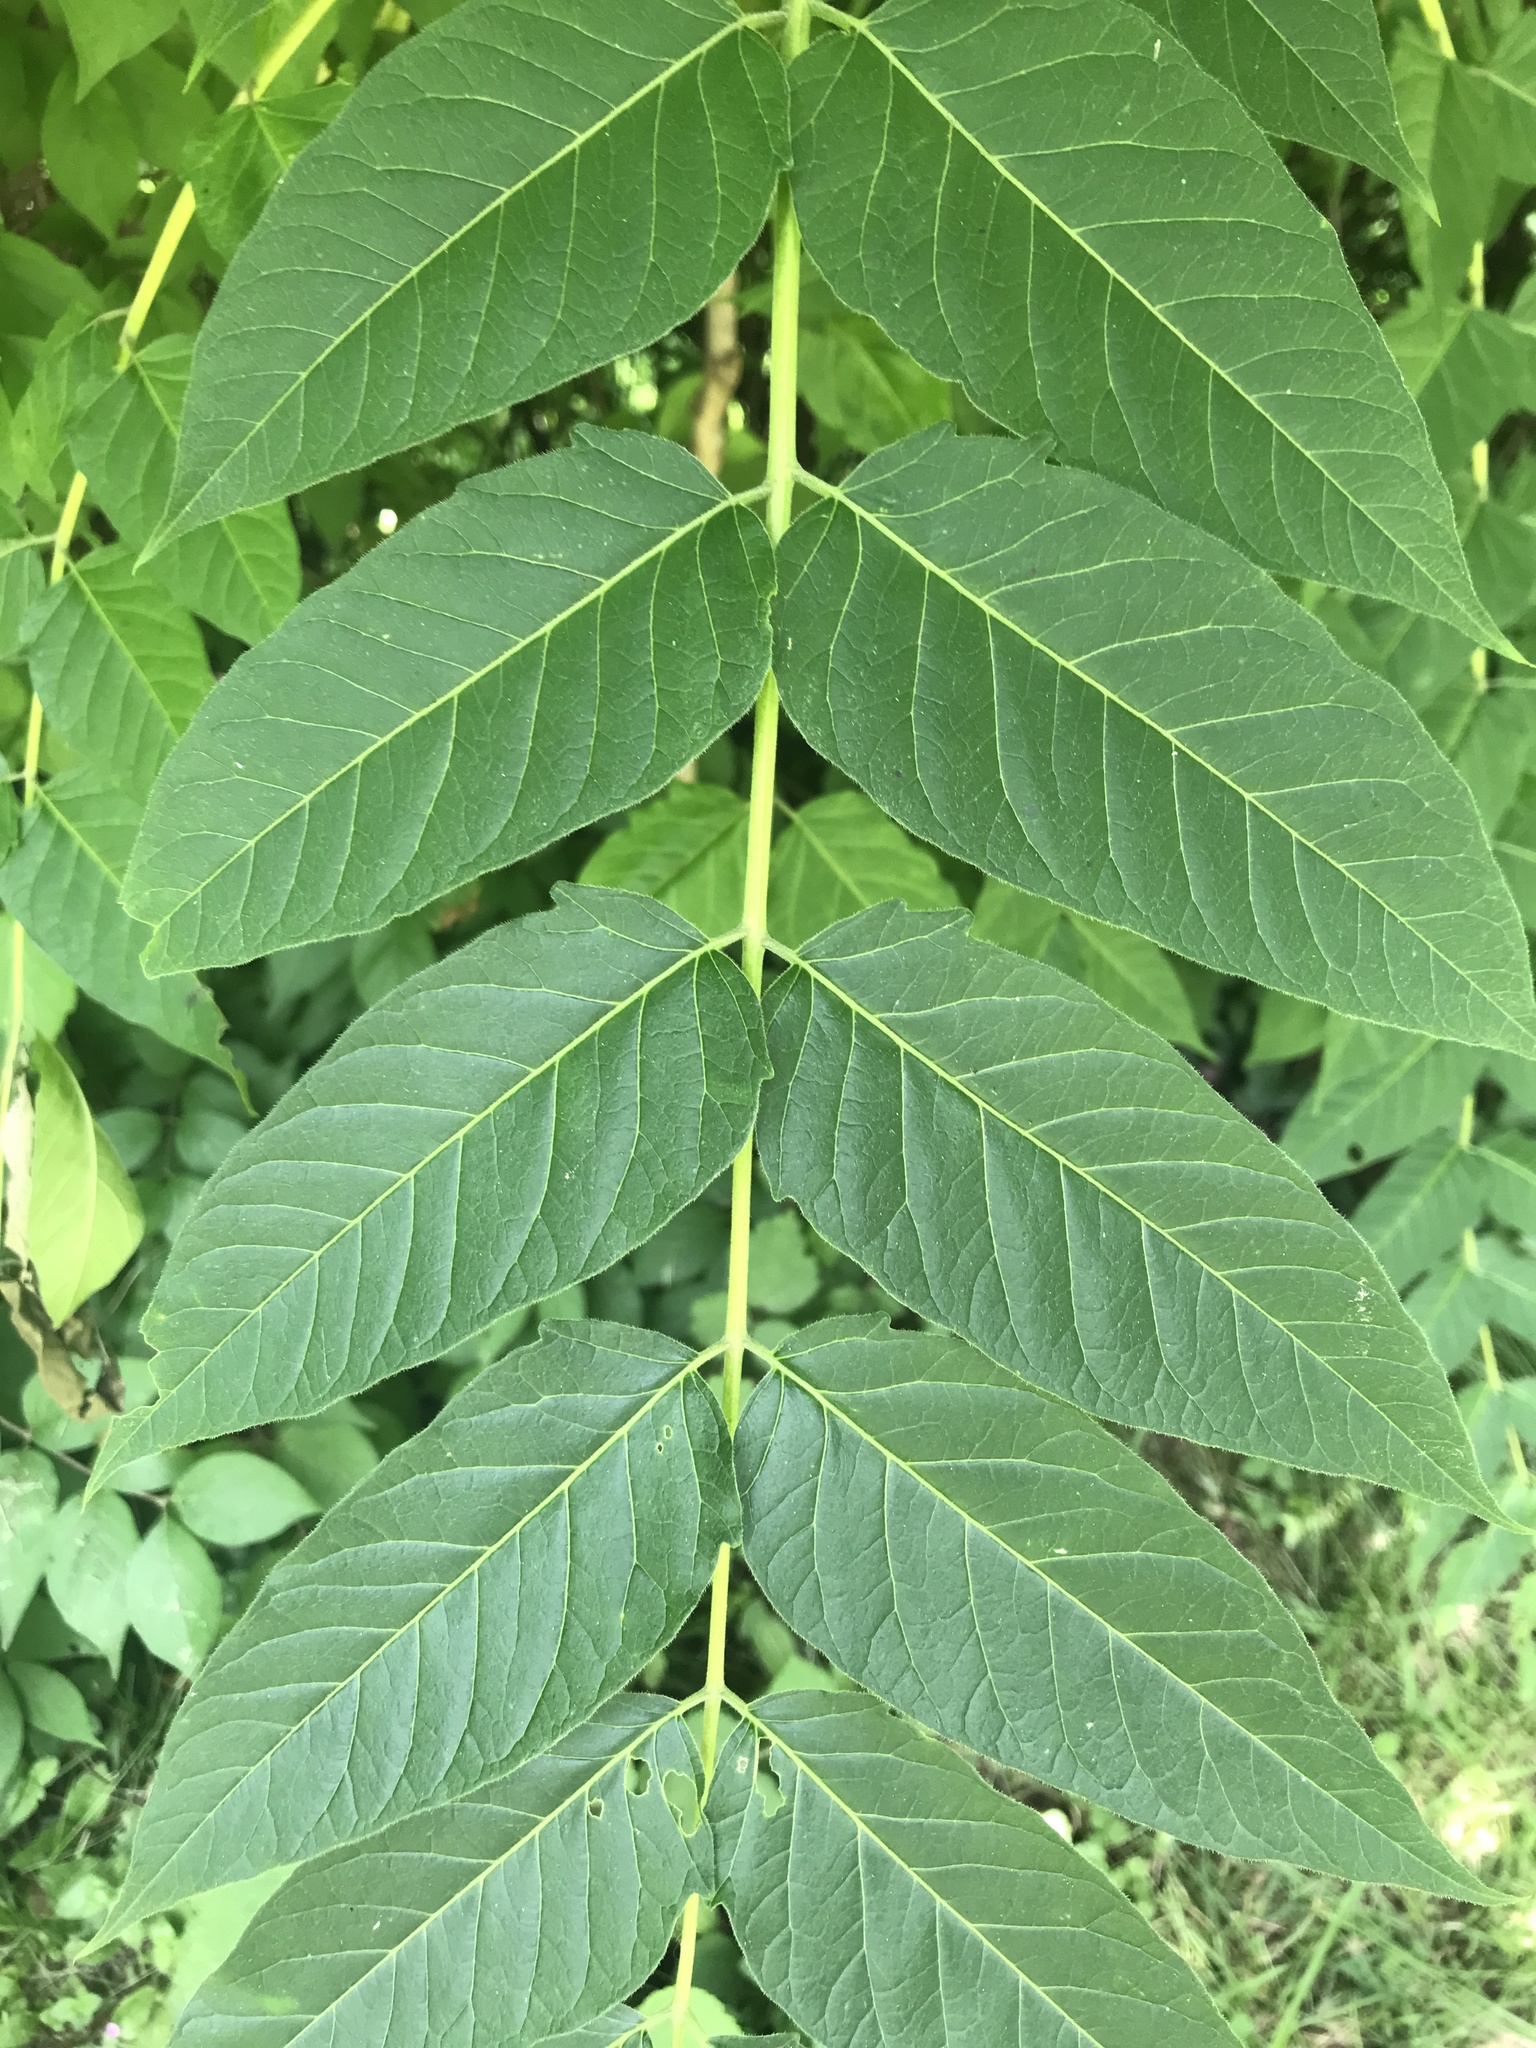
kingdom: Plantae
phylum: Tracheophyta
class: Magnoliopsida
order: Sapindales
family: Simaroubaceae
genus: Ailanthus
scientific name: Ailanthus altissima
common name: Tree-of-heaven
